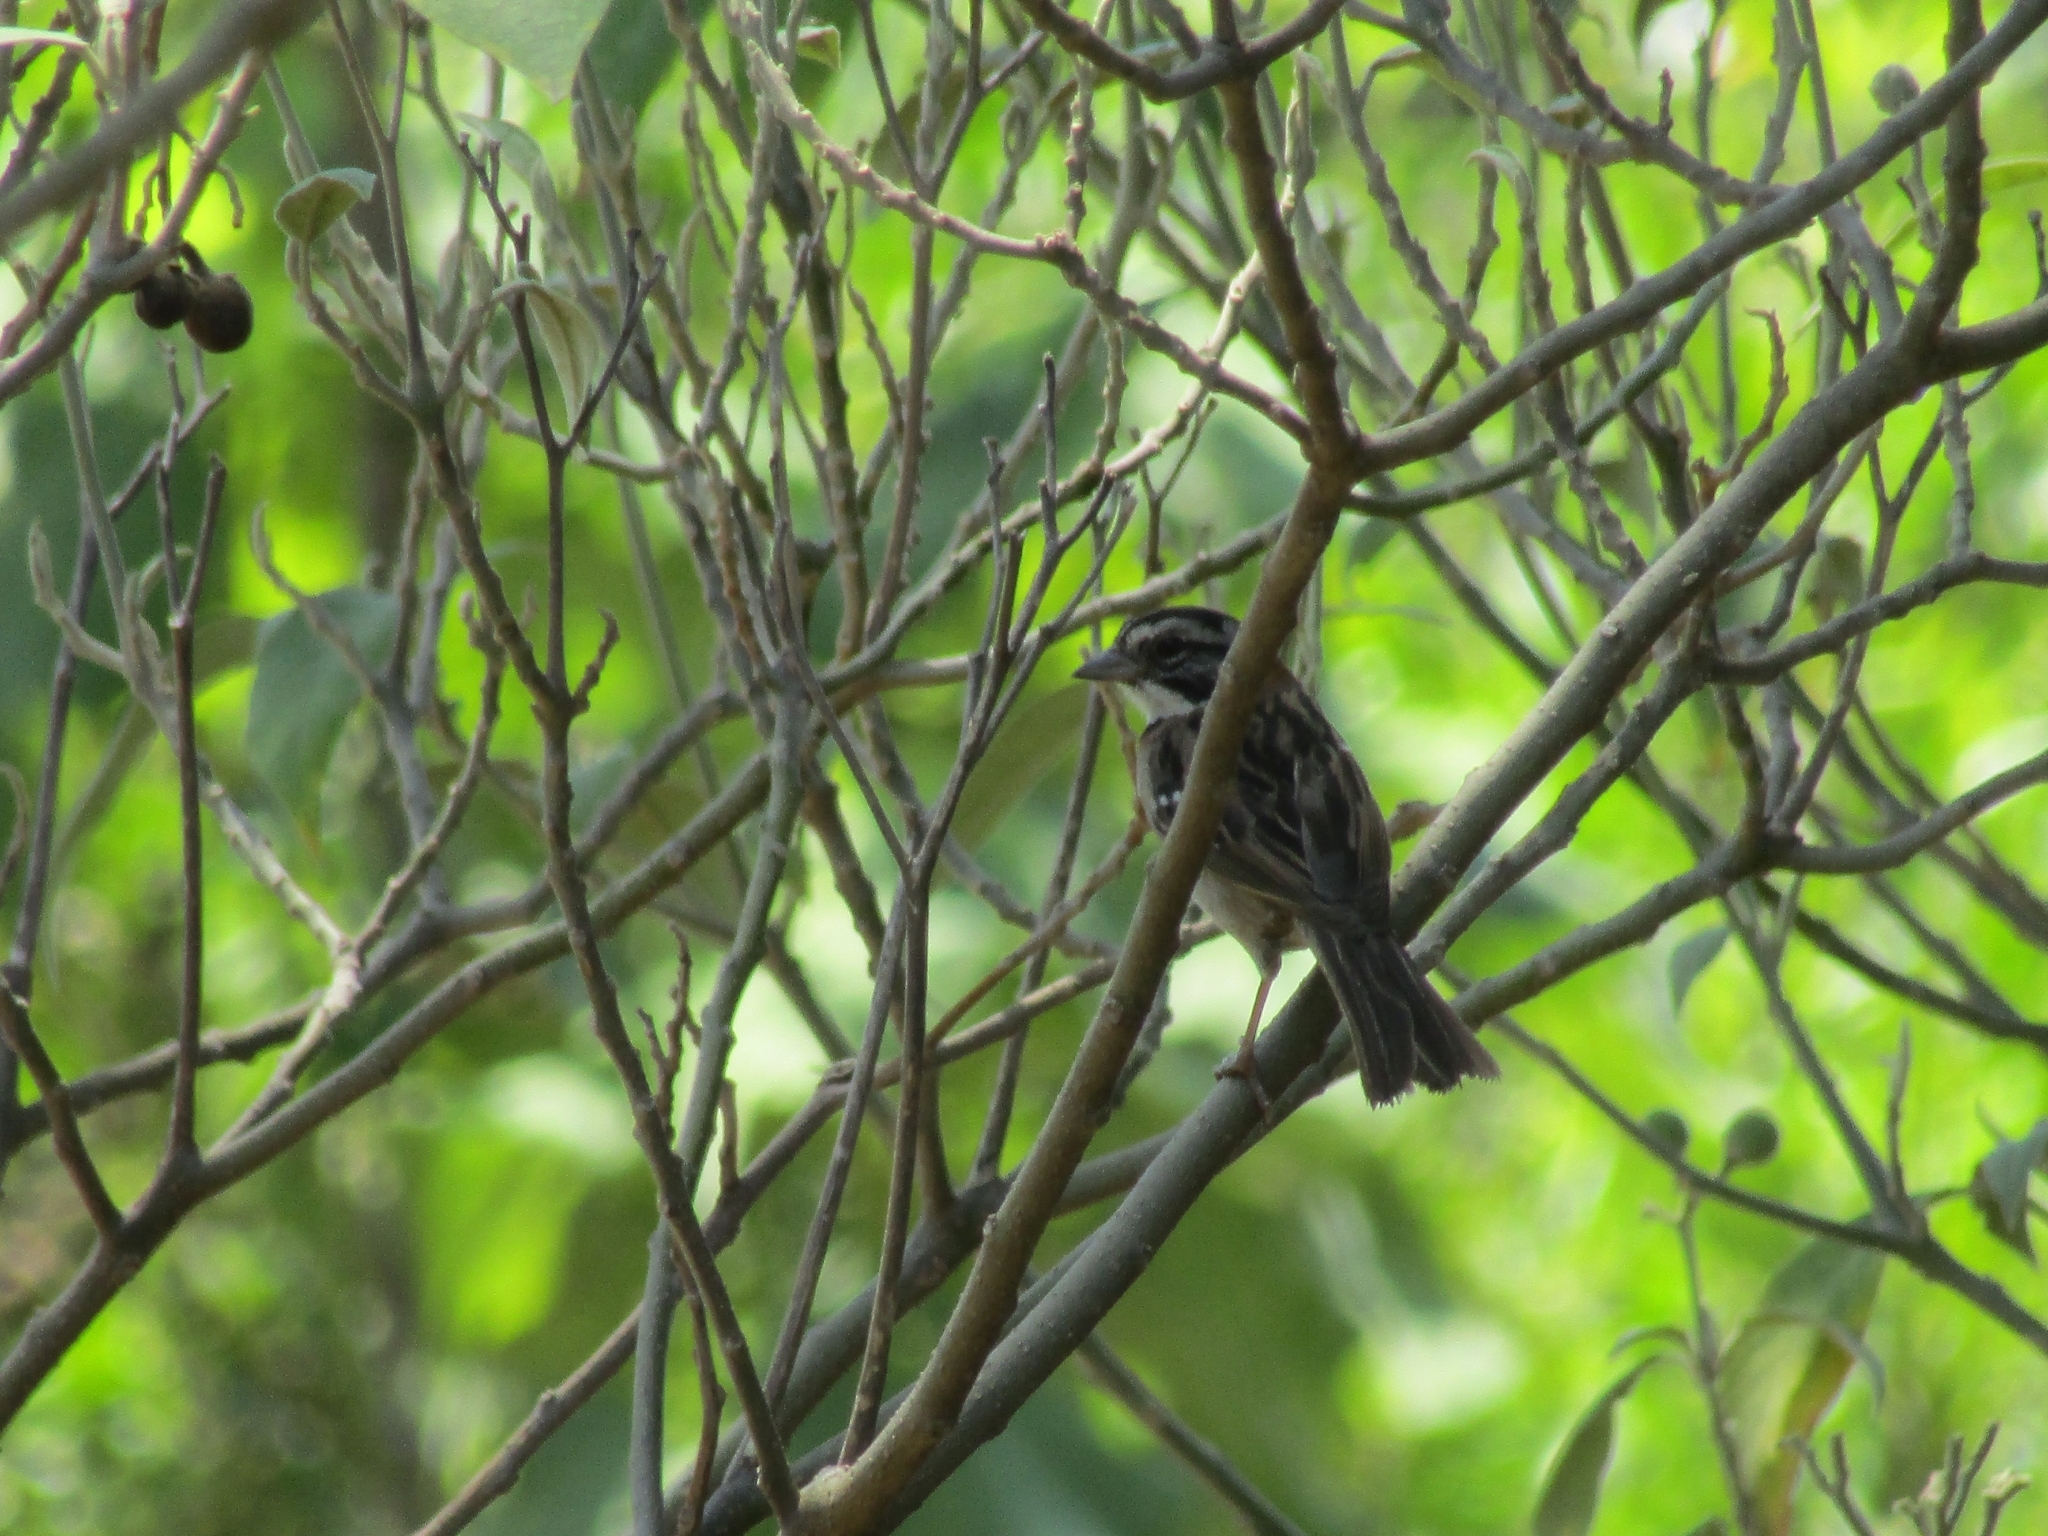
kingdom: Animalia
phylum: Chordata
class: Aves
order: Passeriformes
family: Passerellidae
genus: Zonotrichia
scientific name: Zonotrichia capensis
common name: Rufous-collared sparrow
